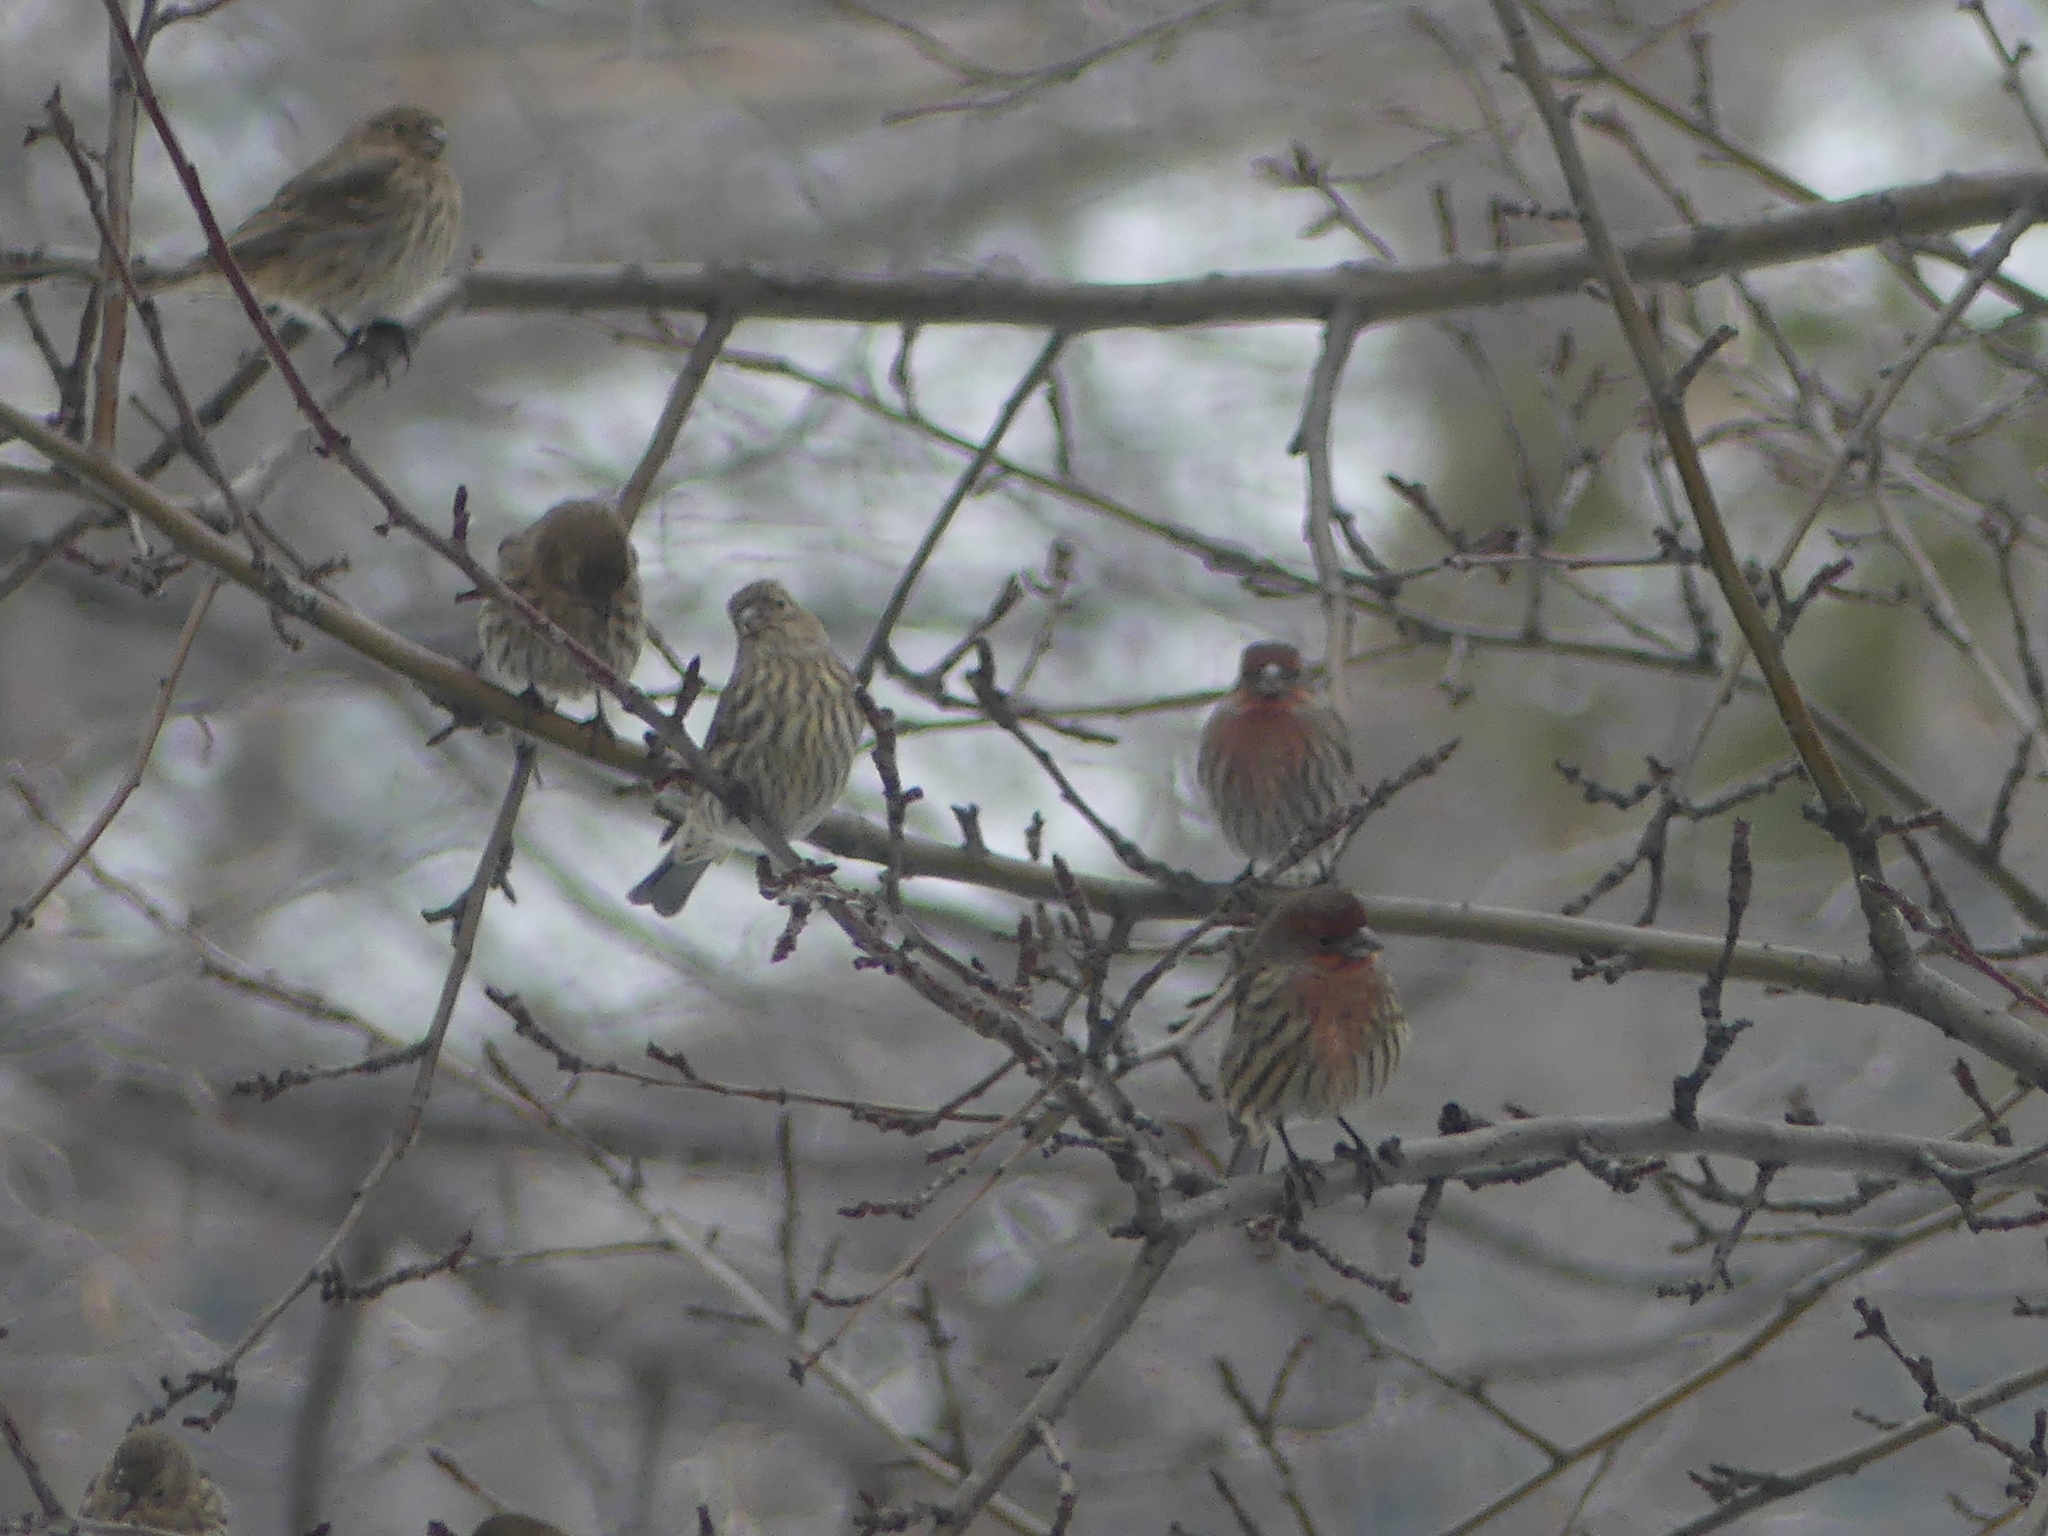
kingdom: Animalia
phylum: Chordata
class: Aves
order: Passeriformes
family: Fringillidae
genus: Haemorhous
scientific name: Haemorhous mexicanus
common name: House finch
